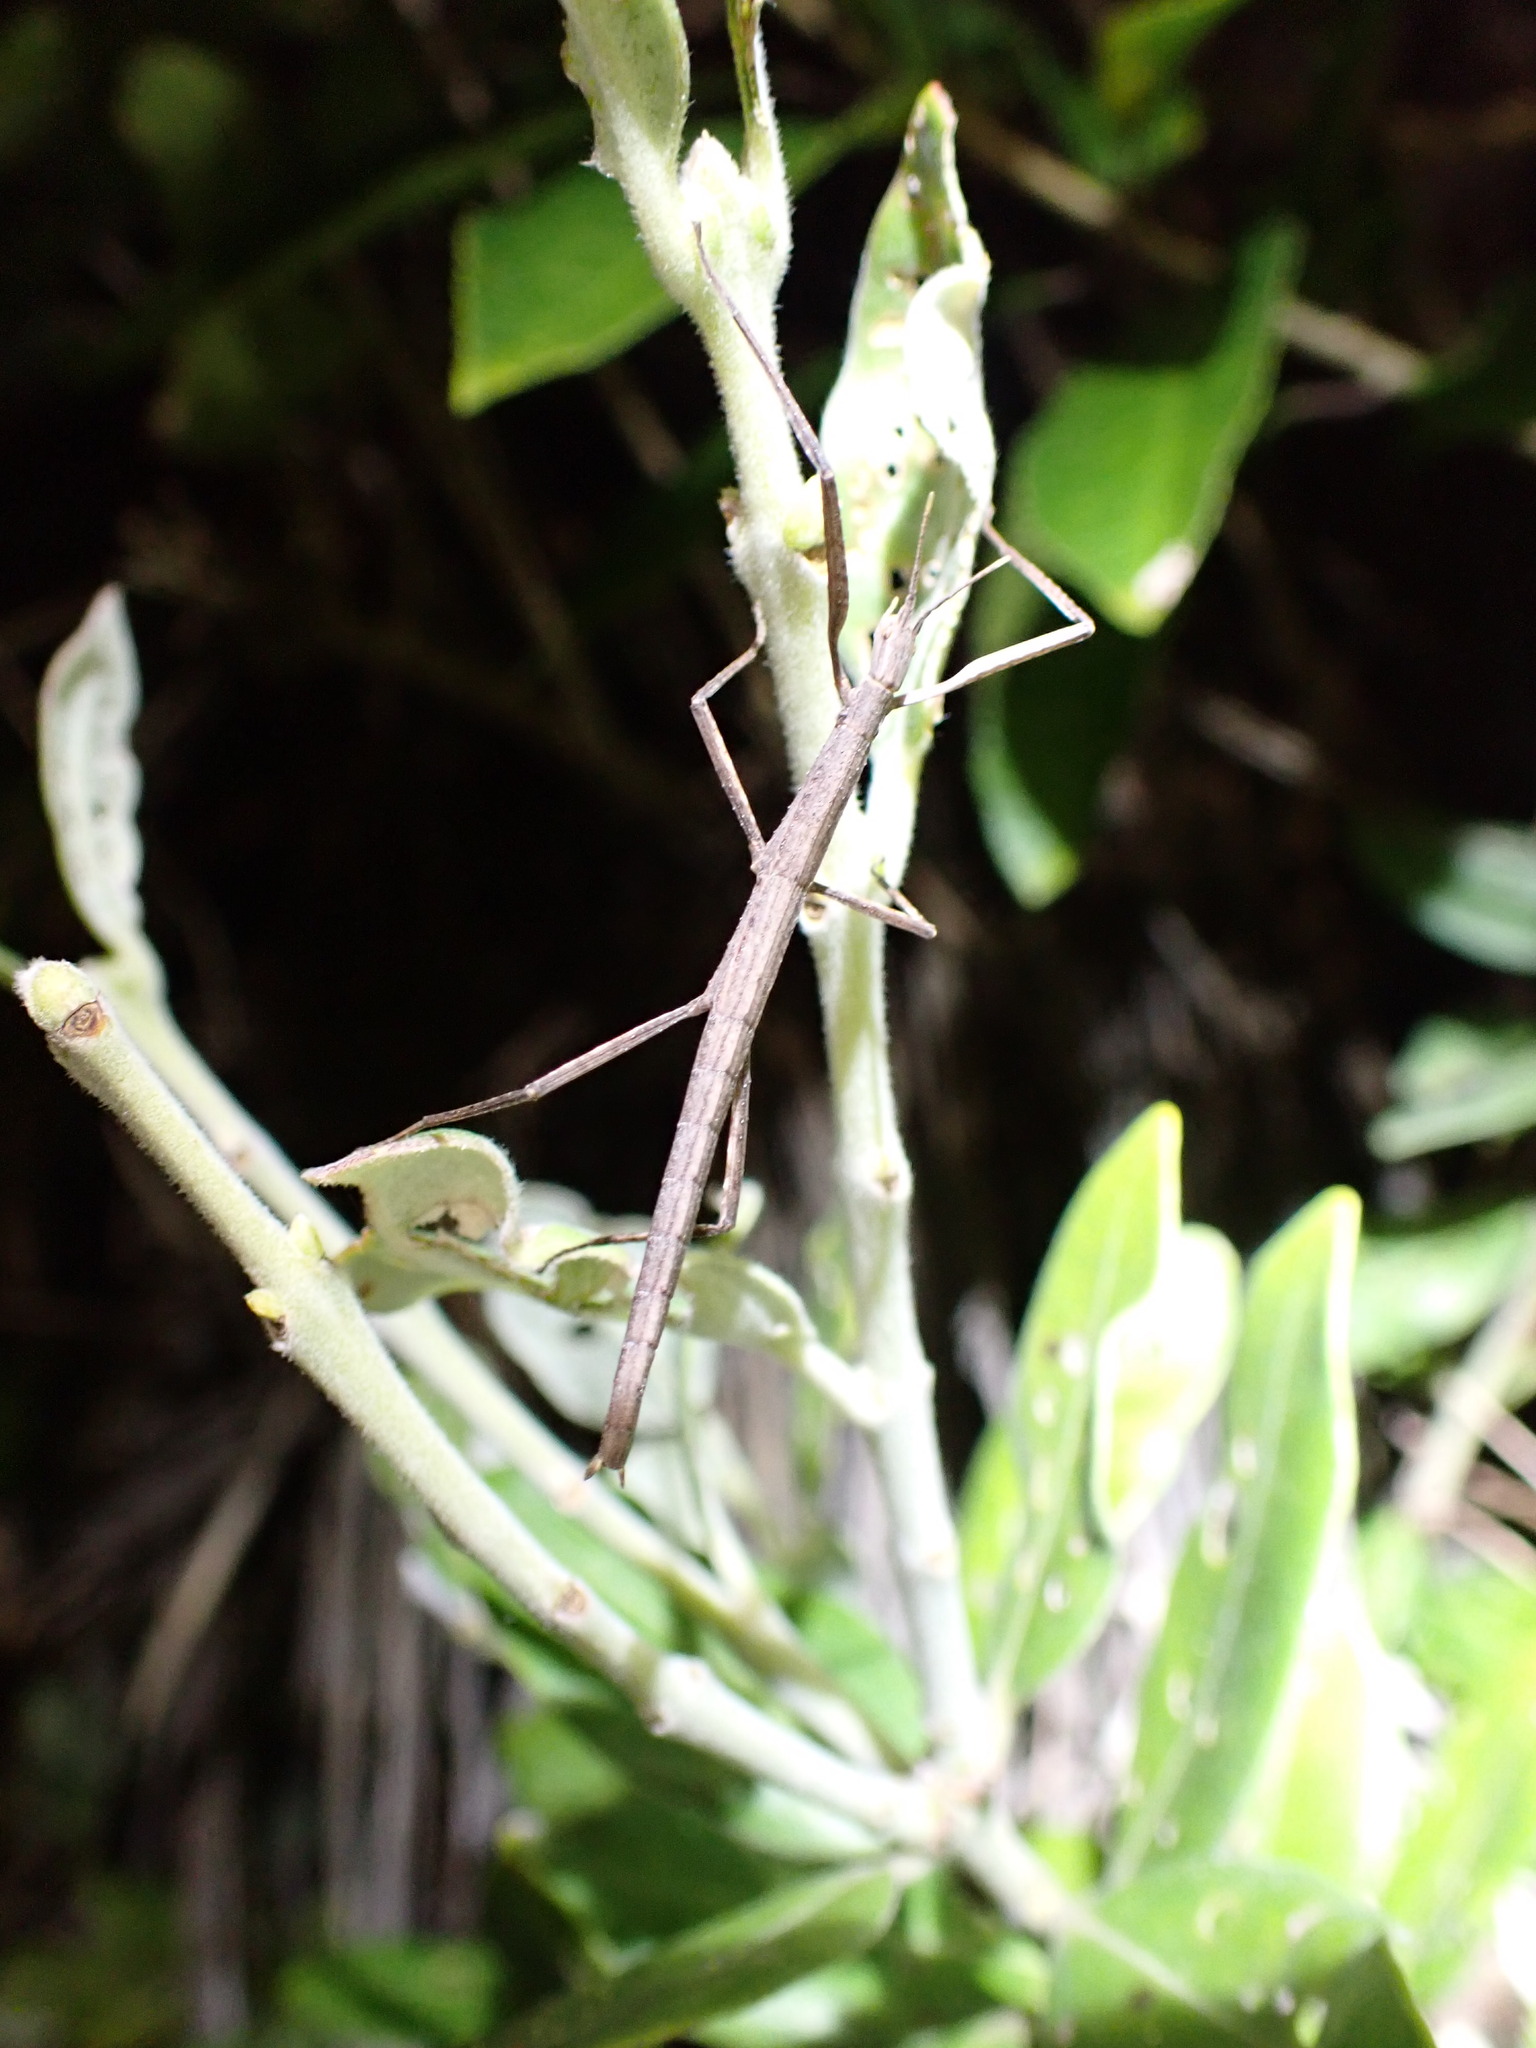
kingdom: Animalia
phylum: Arthropoda
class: Insecta
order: Phasmida
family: Phasmatidae
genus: Tectarchus
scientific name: Tectarchus huttoni
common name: The common ridge-backed stick insect
